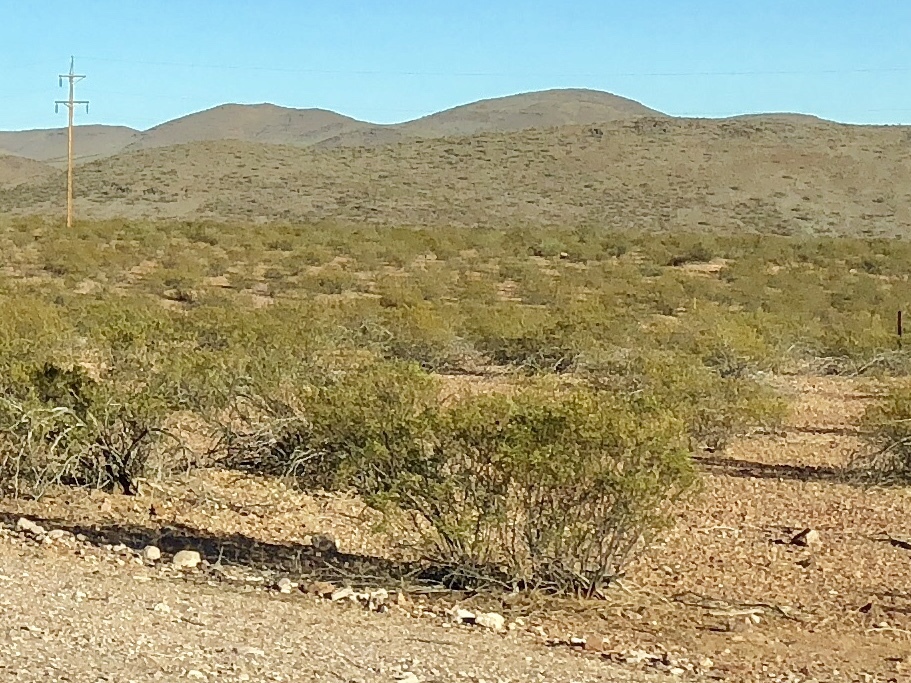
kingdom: Plantae
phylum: Tracheophyta
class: Magnoliopsida
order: Zygophyllales
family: Zygophyllaceae
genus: Larrea
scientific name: Larrea tridentata
